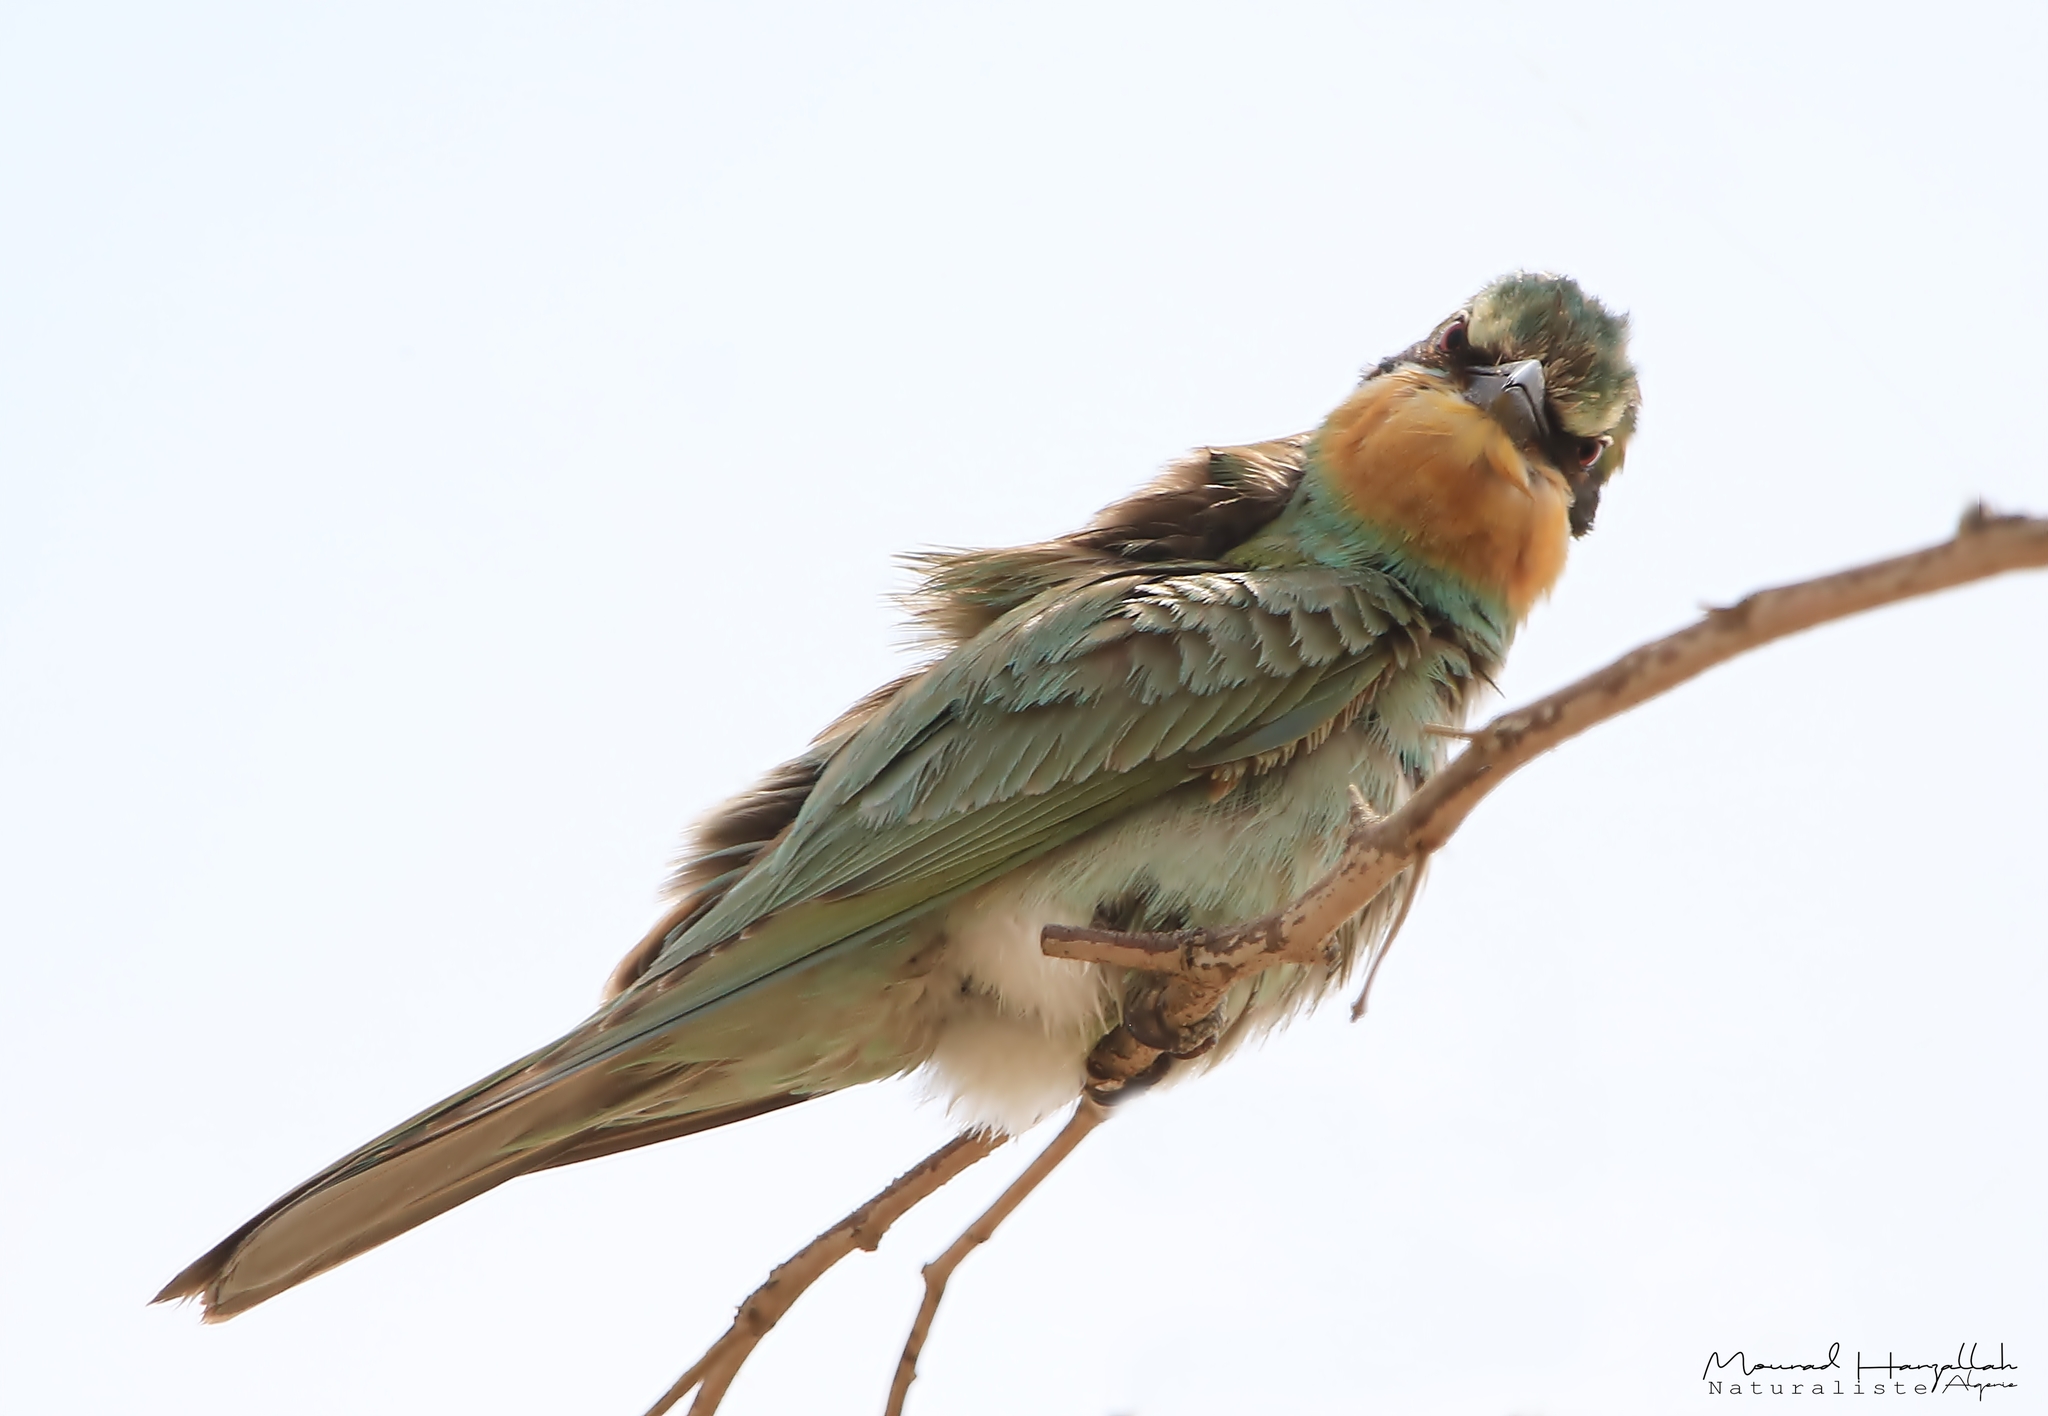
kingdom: Animalia
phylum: Chordata
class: Aves
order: Coraciiformes
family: Meropidae
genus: Merops
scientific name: Merops persicus
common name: Blue-cheeked bee-eater
